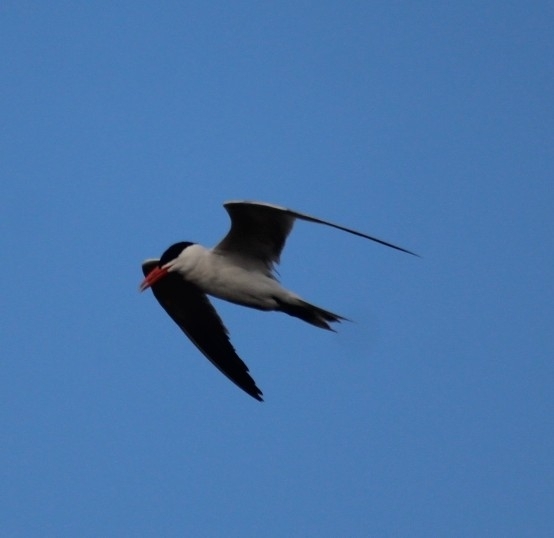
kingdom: Animalia
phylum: Chordata
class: Aves
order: Charadriiformes
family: Laridae
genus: Hydroprogne
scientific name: Hydroprogne caspia
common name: Caspian tern
